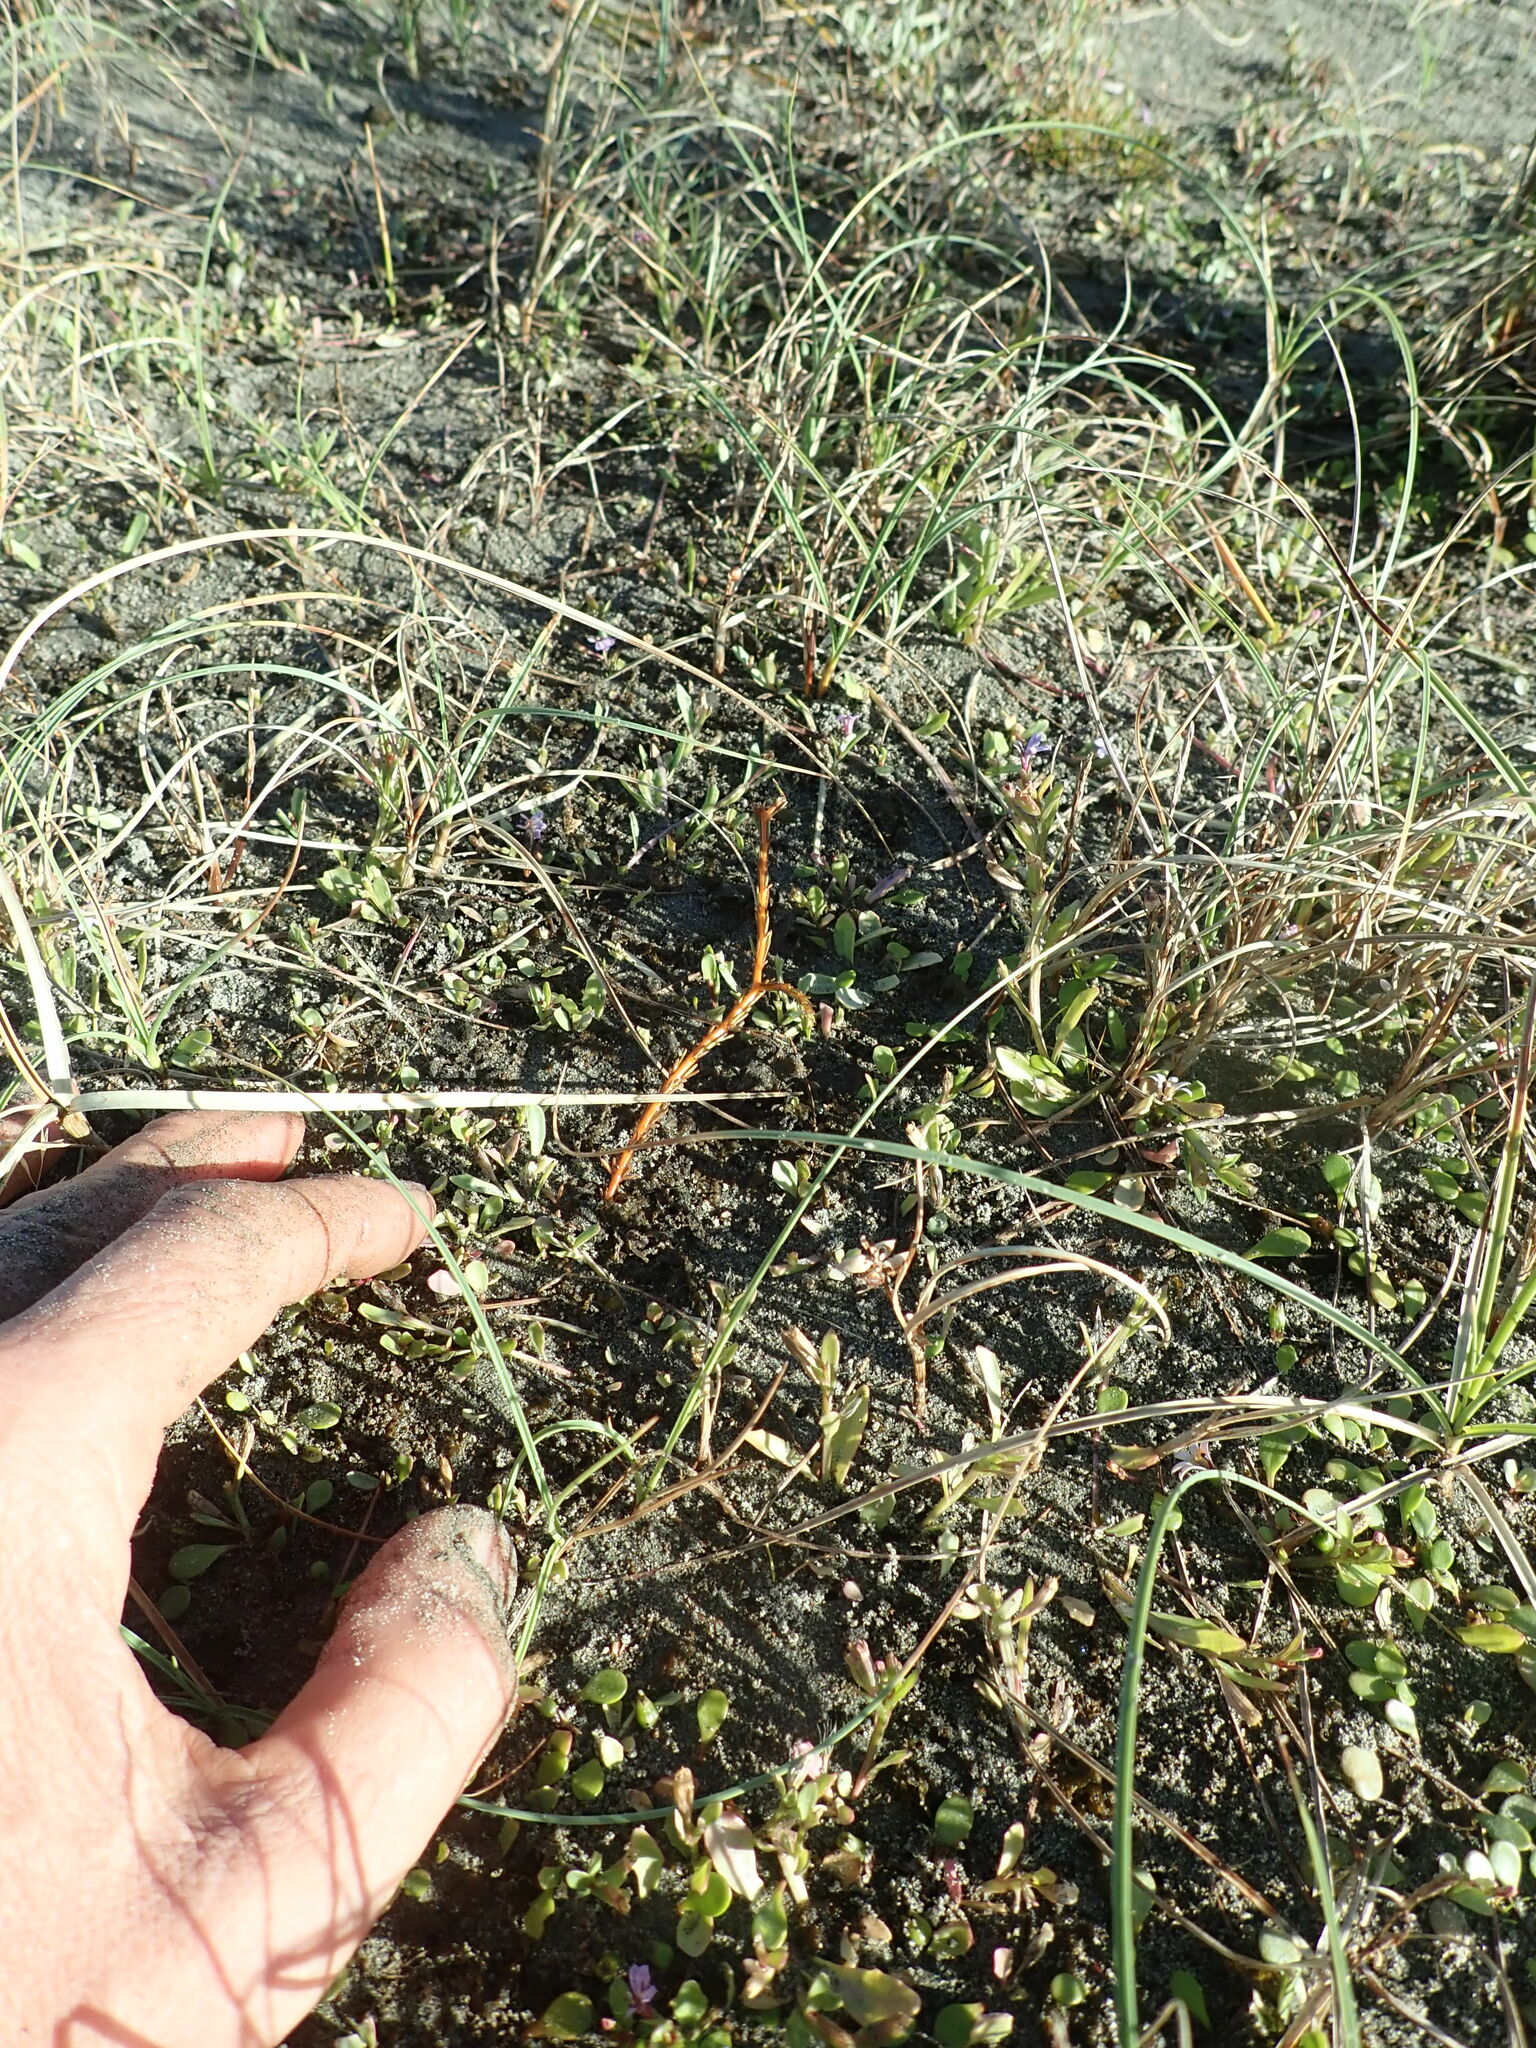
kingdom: Plantae
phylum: Tracheophyta
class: Magnoliopsida
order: Gentianales
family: Rubiaceae
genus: Coprosma
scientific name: Coprosma acerosa
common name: Sand coprosma
